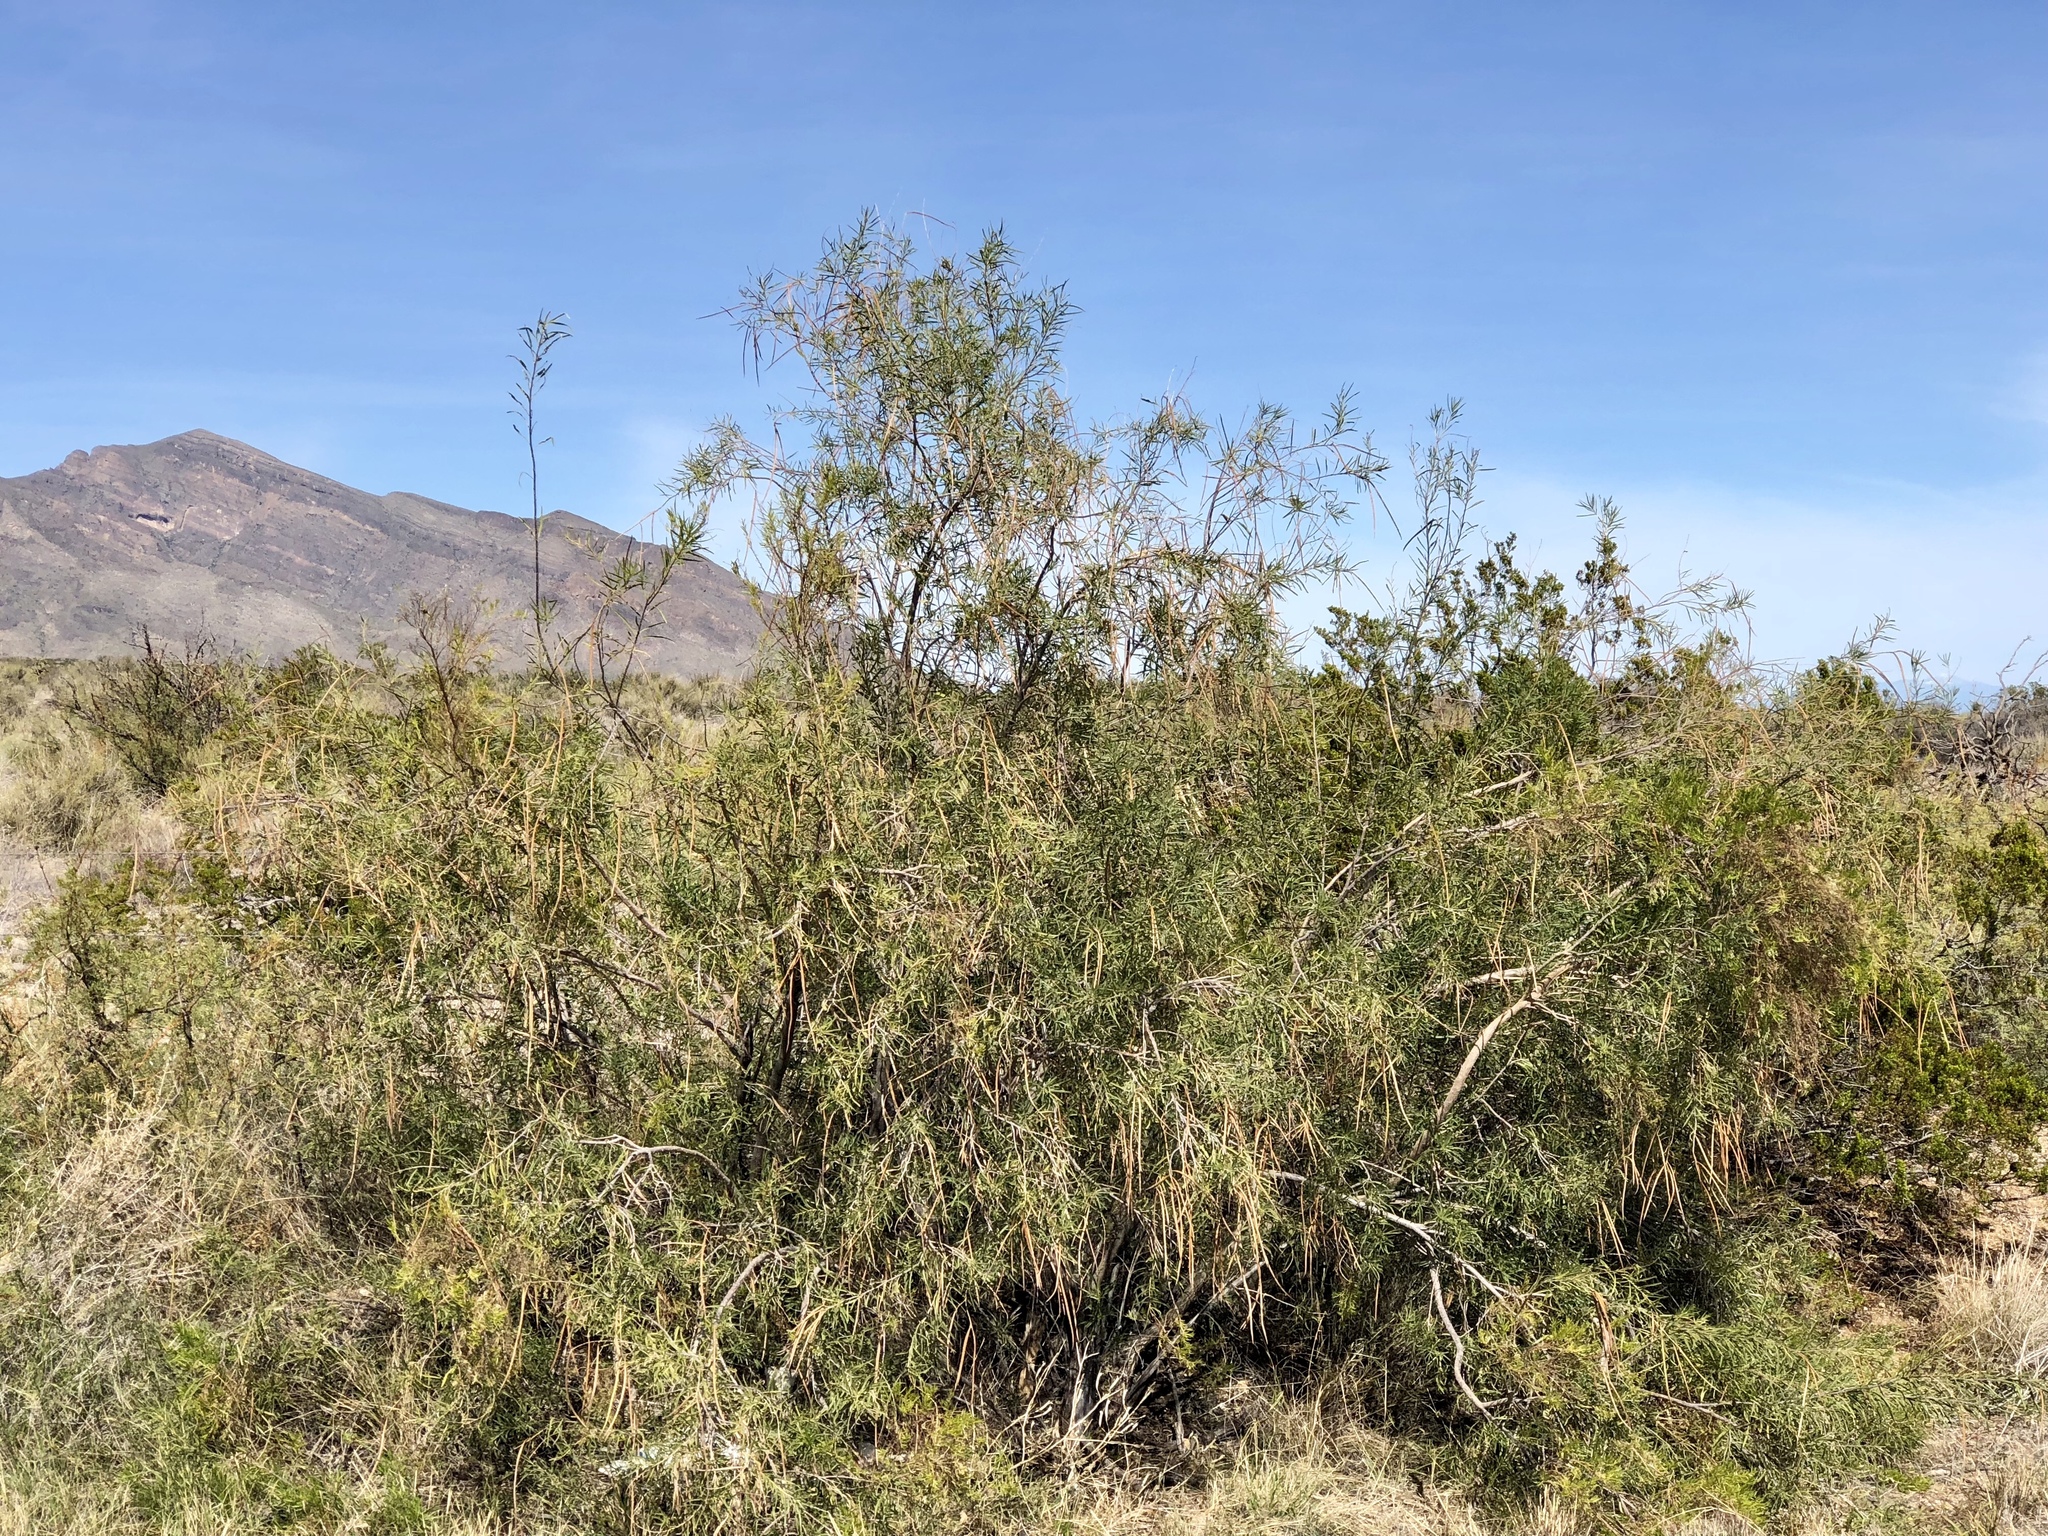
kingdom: Plantae
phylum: Tracheophyta
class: Magnoliopsida
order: Lamiales
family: Bignoniaceae
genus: Chilopsis
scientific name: Chilopsis linearis
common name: Desert-willow
